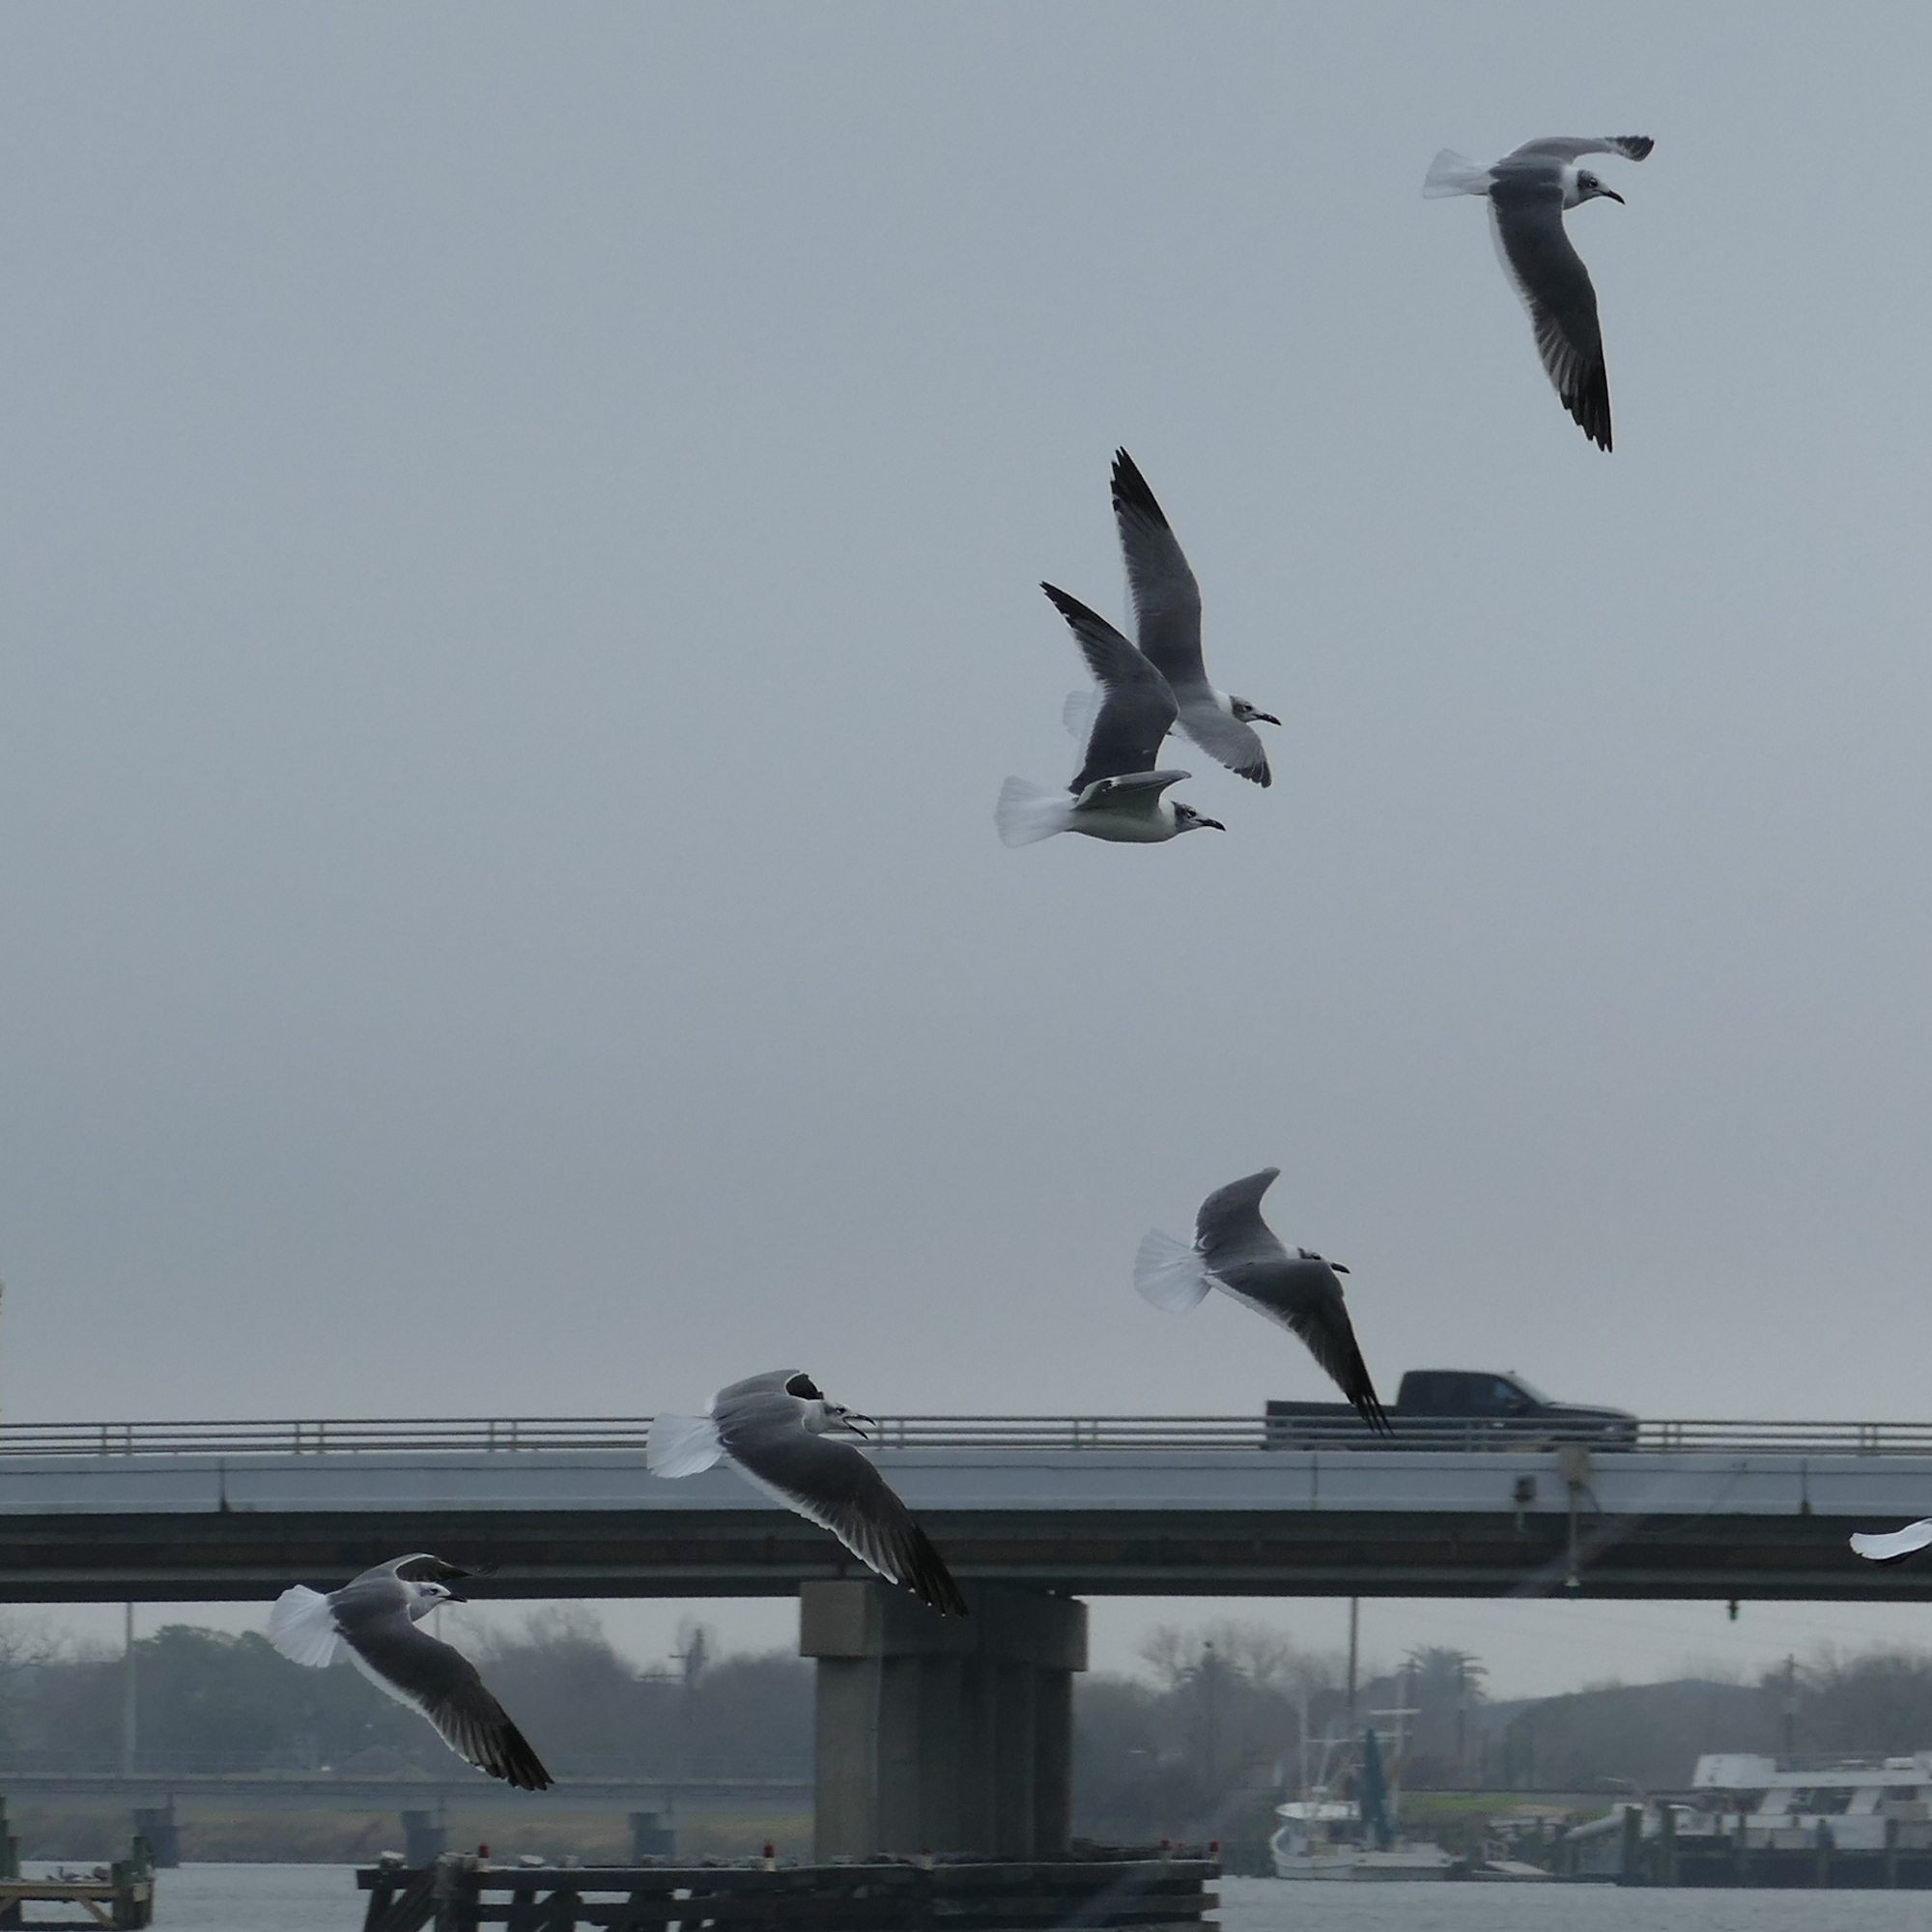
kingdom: Animalia
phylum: Chordata
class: Aves
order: Charadriiformes
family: Laridae
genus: Leucophaeus
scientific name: Leucophaeus atricilla
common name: Laughing gull
